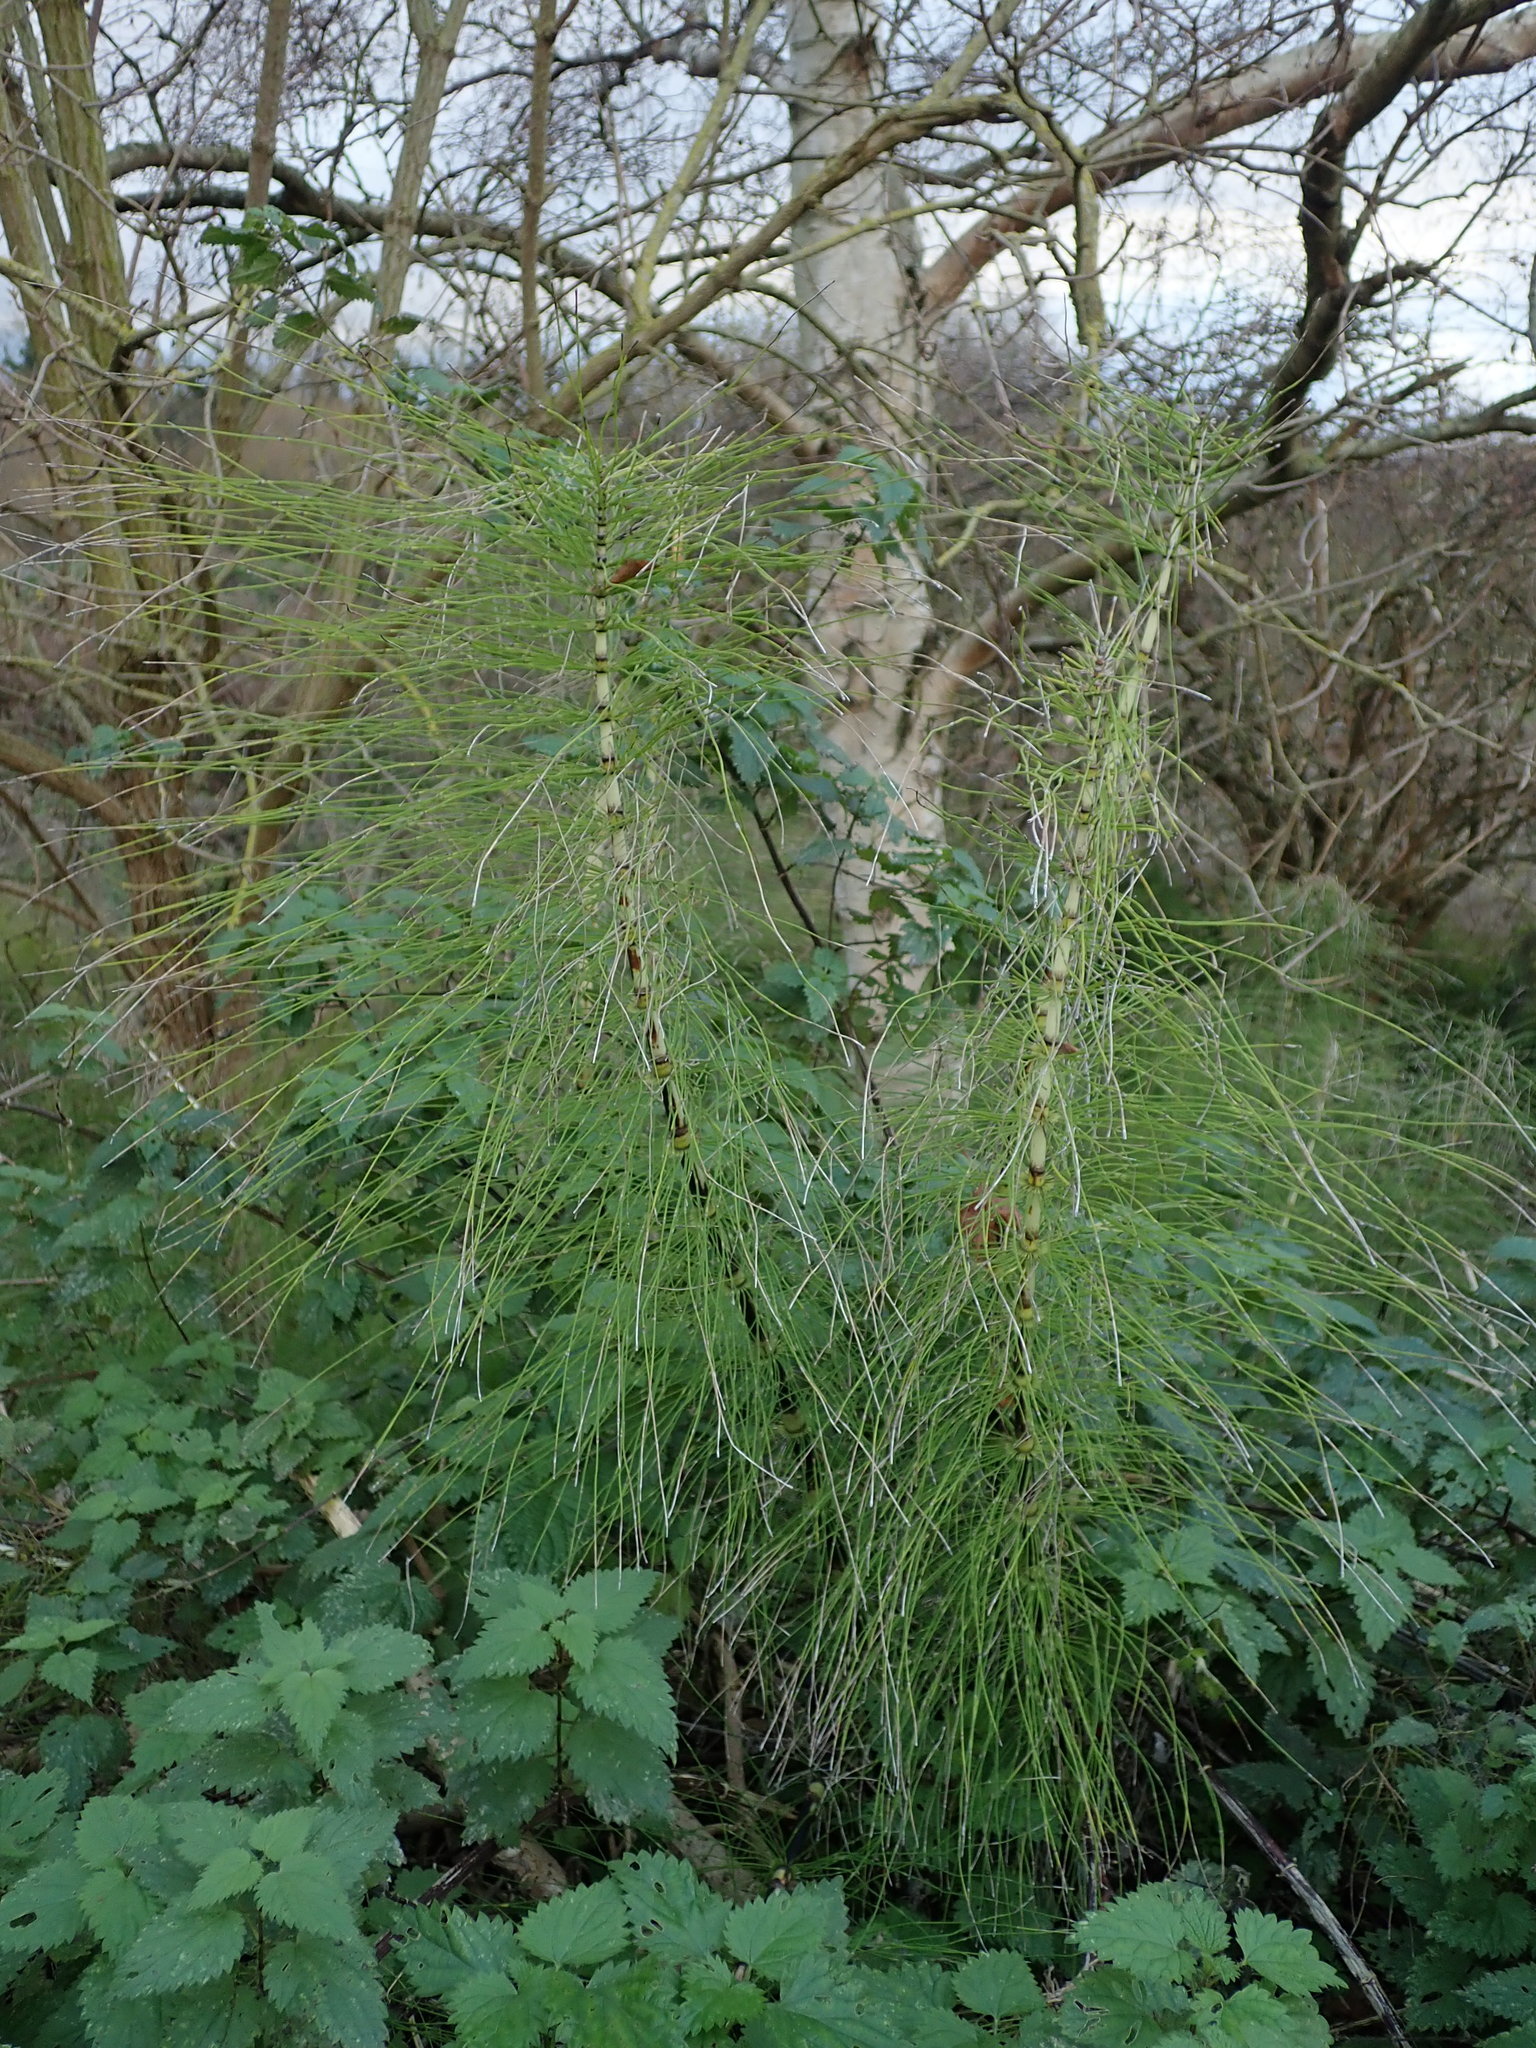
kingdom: Plantae
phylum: Tracheophyta
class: Polypodiopsida
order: Equisetales
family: Equisetaceae
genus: Equisetum
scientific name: Equisetum telmateia
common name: Great horsetail
